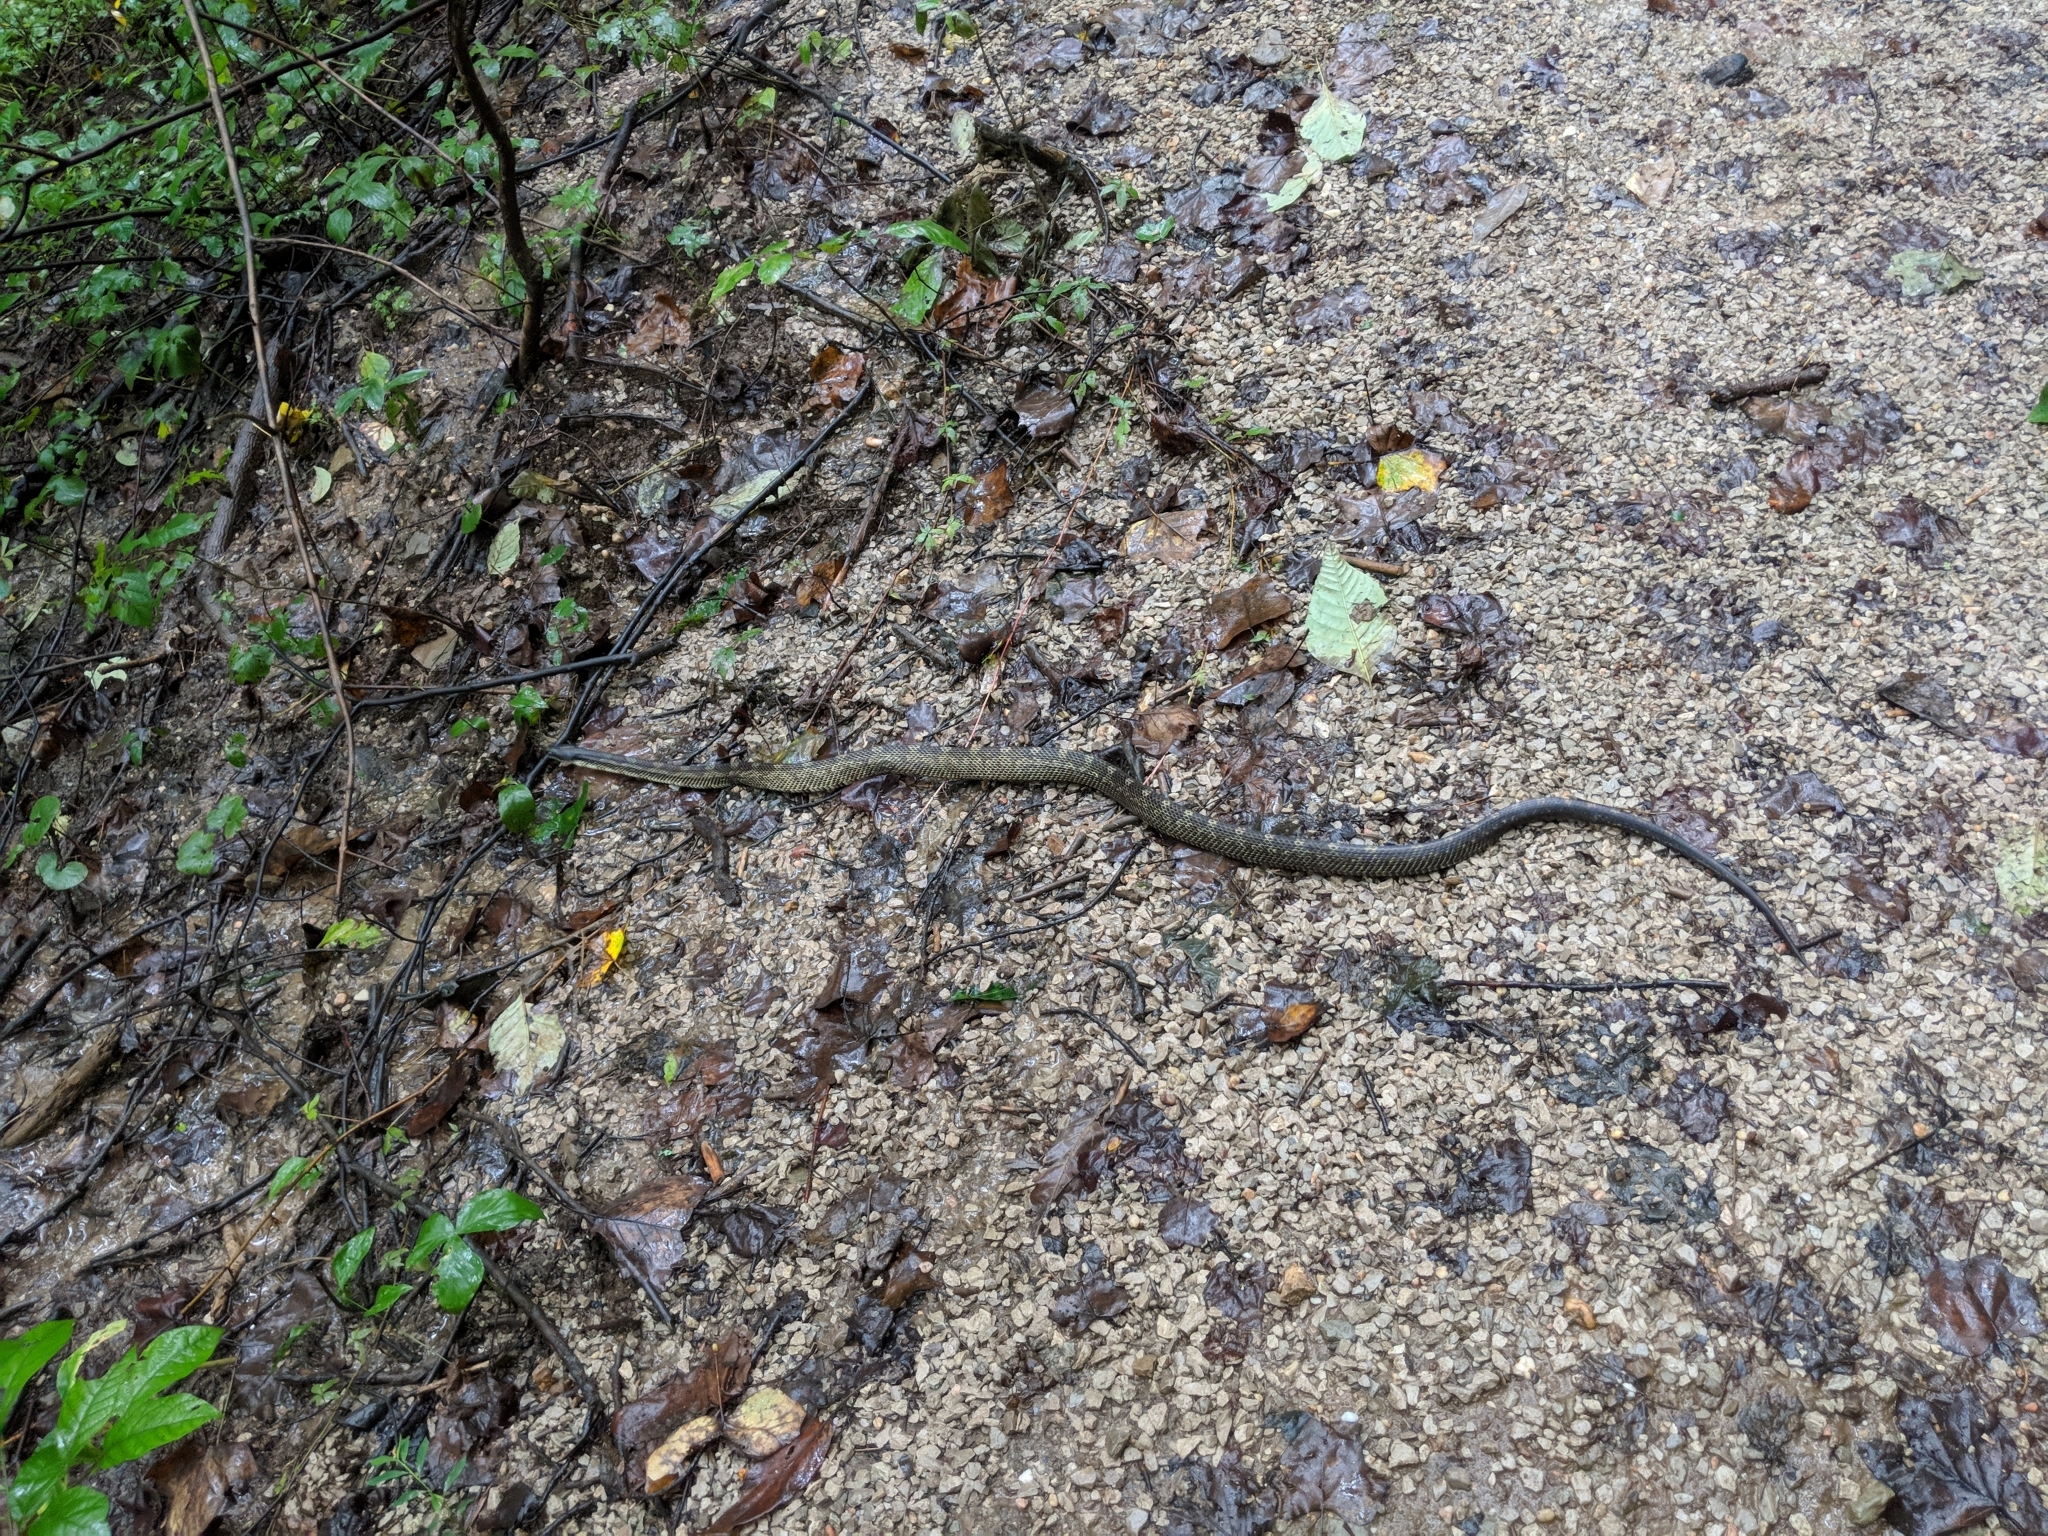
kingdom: Animalia
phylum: Chordata
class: Squamata
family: Colubridae
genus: Pantherophis
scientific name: Pantherophis spiloides
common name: Gray rat snake
